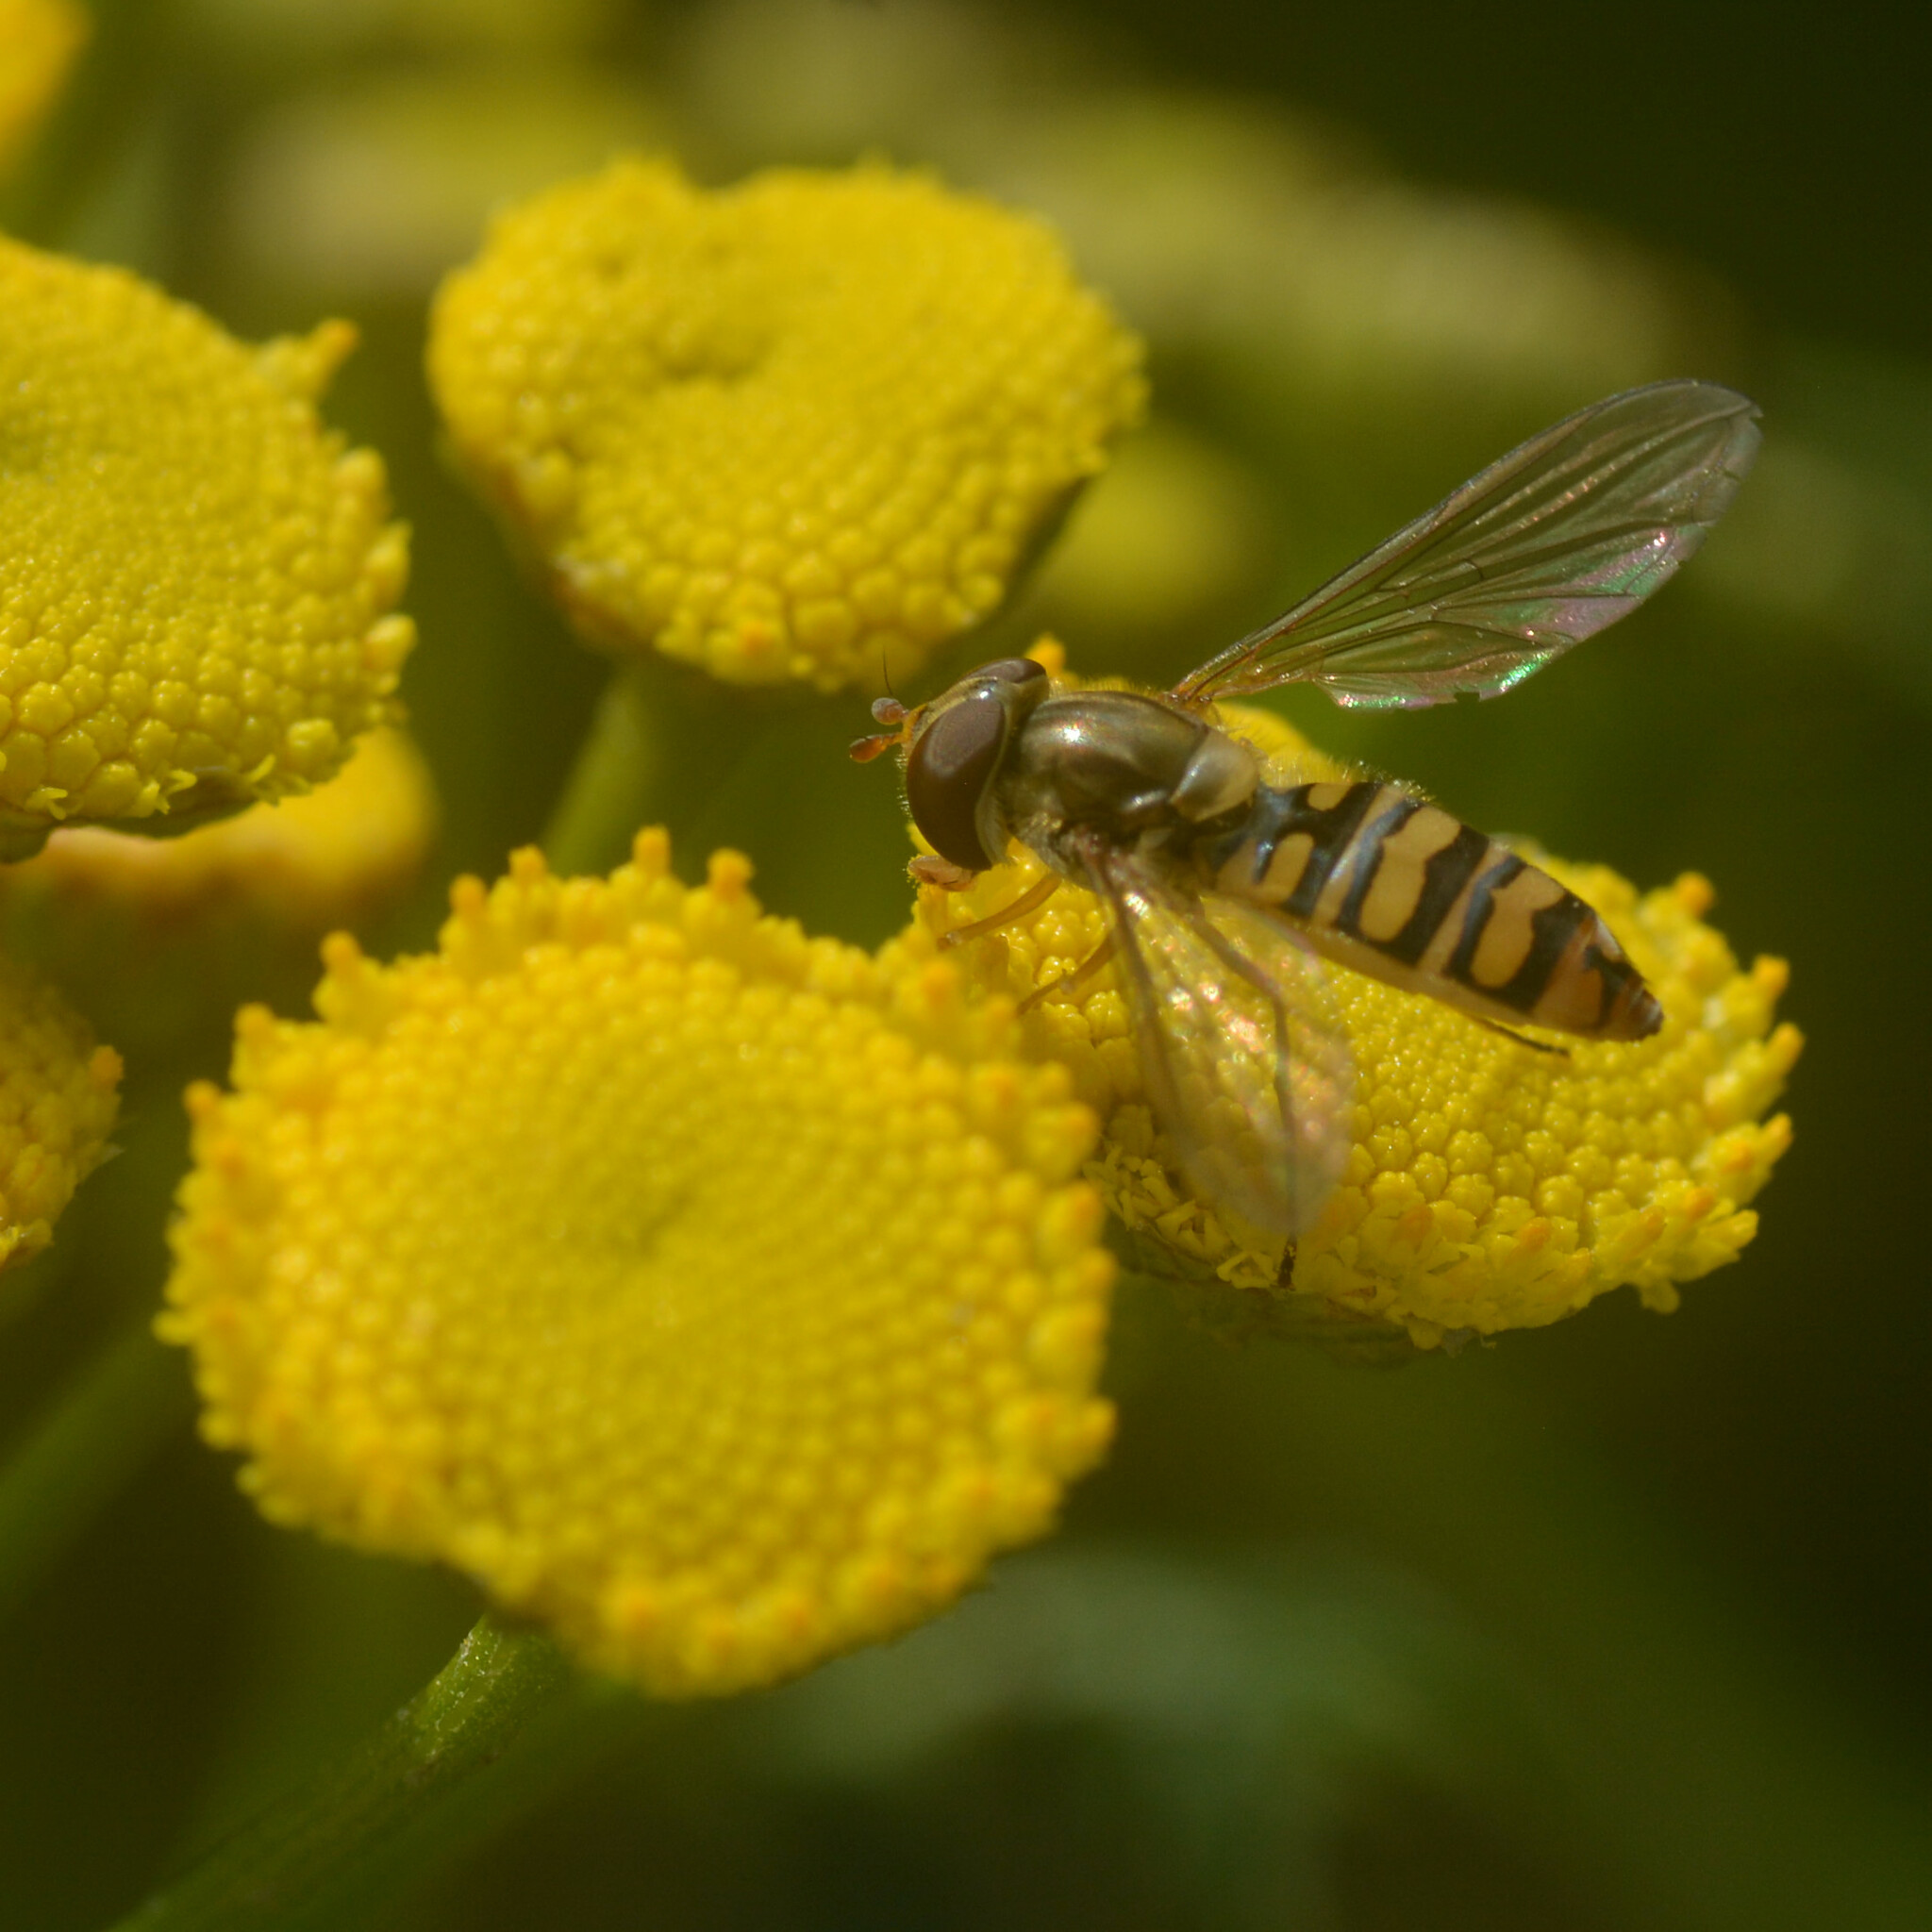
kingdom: Animalia
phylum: Arthropoda
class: Insecta
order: Diptera
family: Syrphidae
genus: Episyrphus
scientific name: Episyrphus balteatus
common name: Marmalade hoverfly
